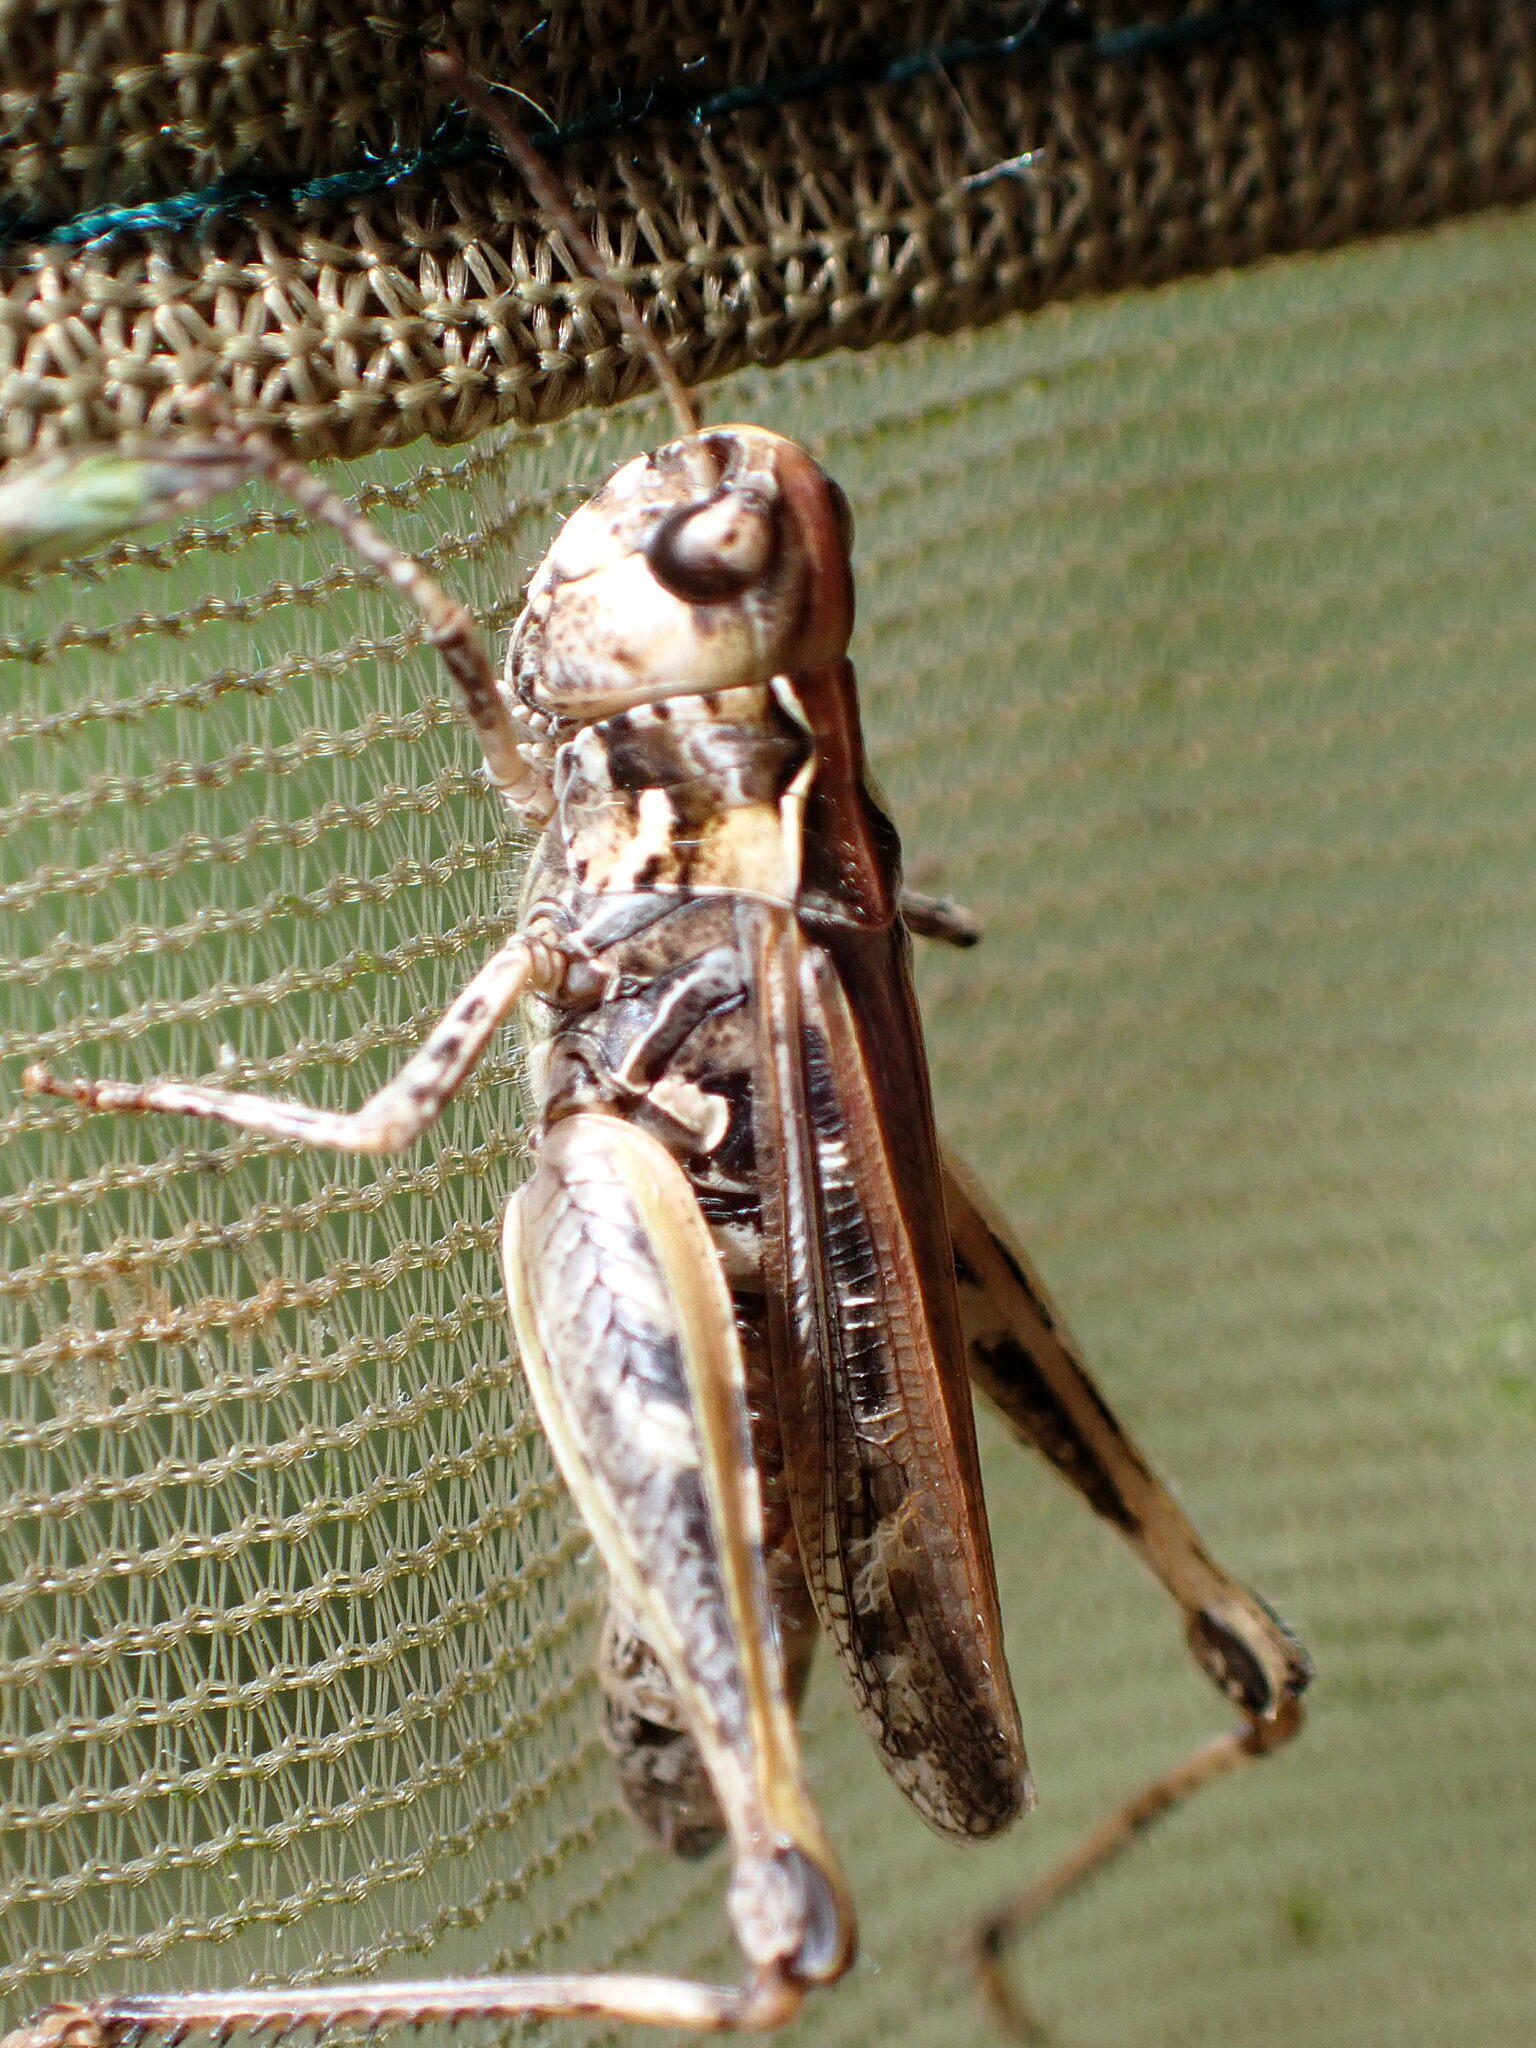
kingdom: Animalia
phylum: Arthropoda
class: Insecta
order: Orthoptera
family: Acrididae
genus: Myrmeleotettix
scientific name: Myrmeleotettix maculatus
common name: Mottled grasshopper
